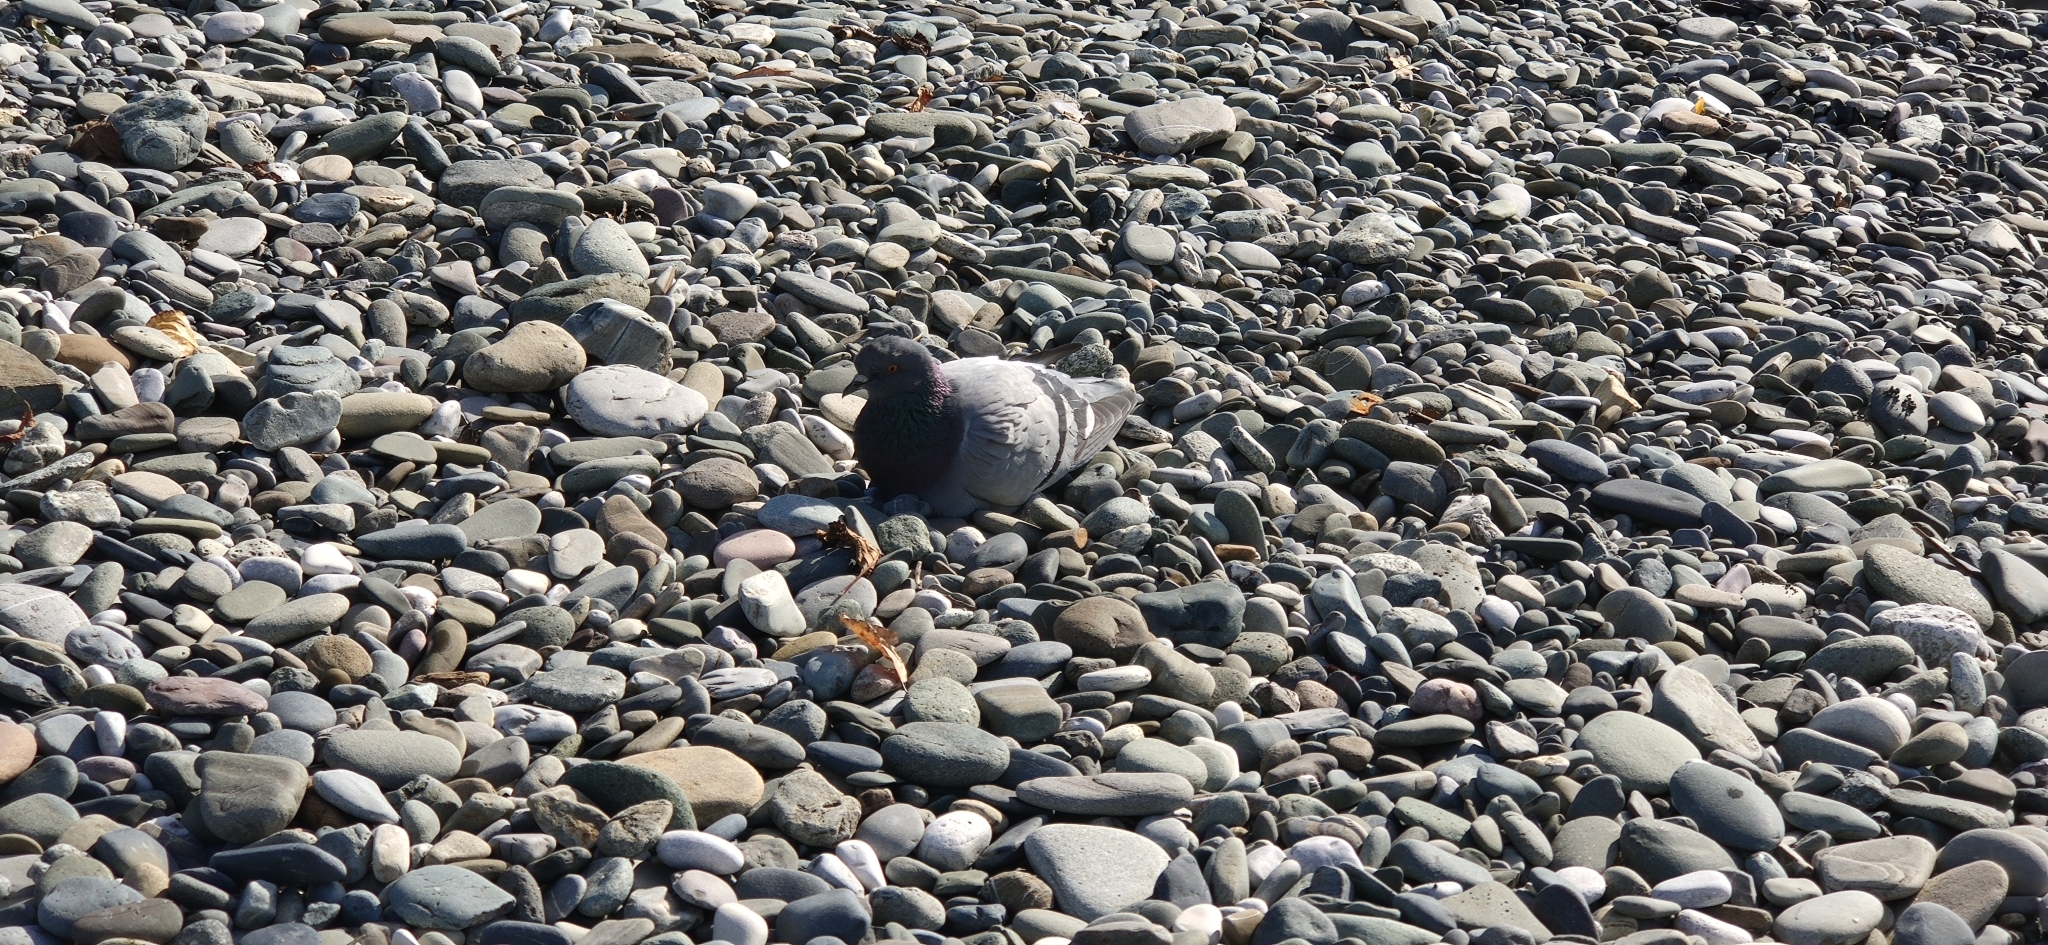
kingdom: Animalia
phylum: Chordata
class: Aves
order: Columbiformes
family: Columbidae
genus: Columba
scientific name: Columba livia
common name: Rock pigeon
